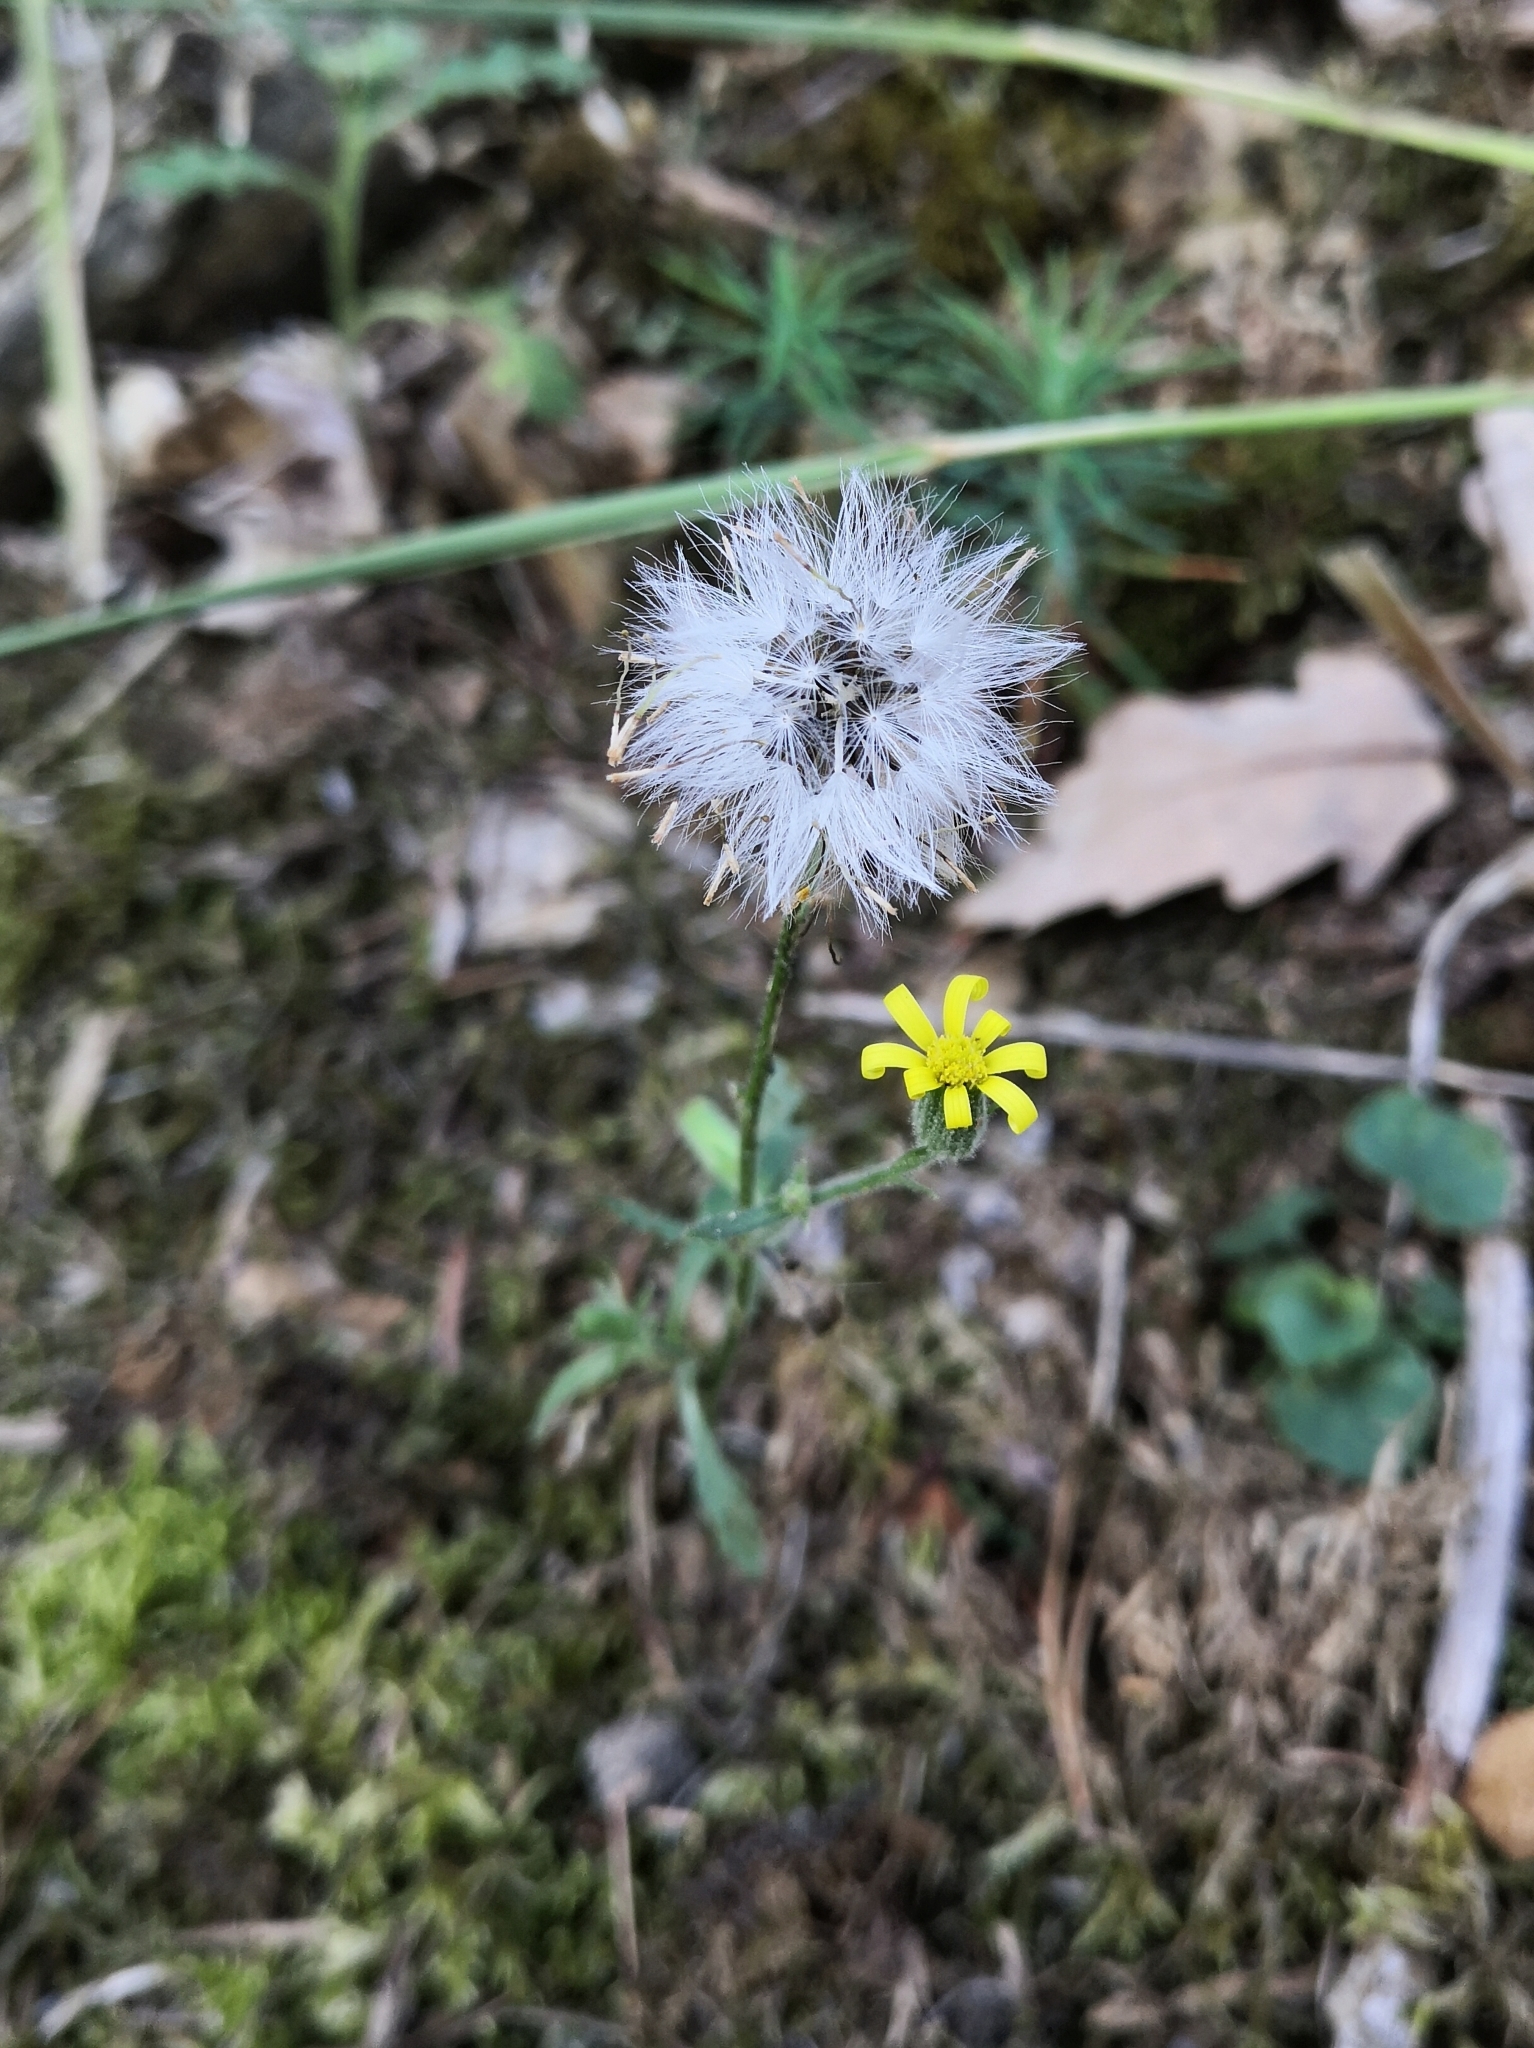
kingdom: Plantae
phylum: Tracheophyta
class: Magnoliopsida
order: Asterales
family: Asteraceae
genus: Senecio
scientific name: Senecio viscosus
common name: Sticky groundsel
